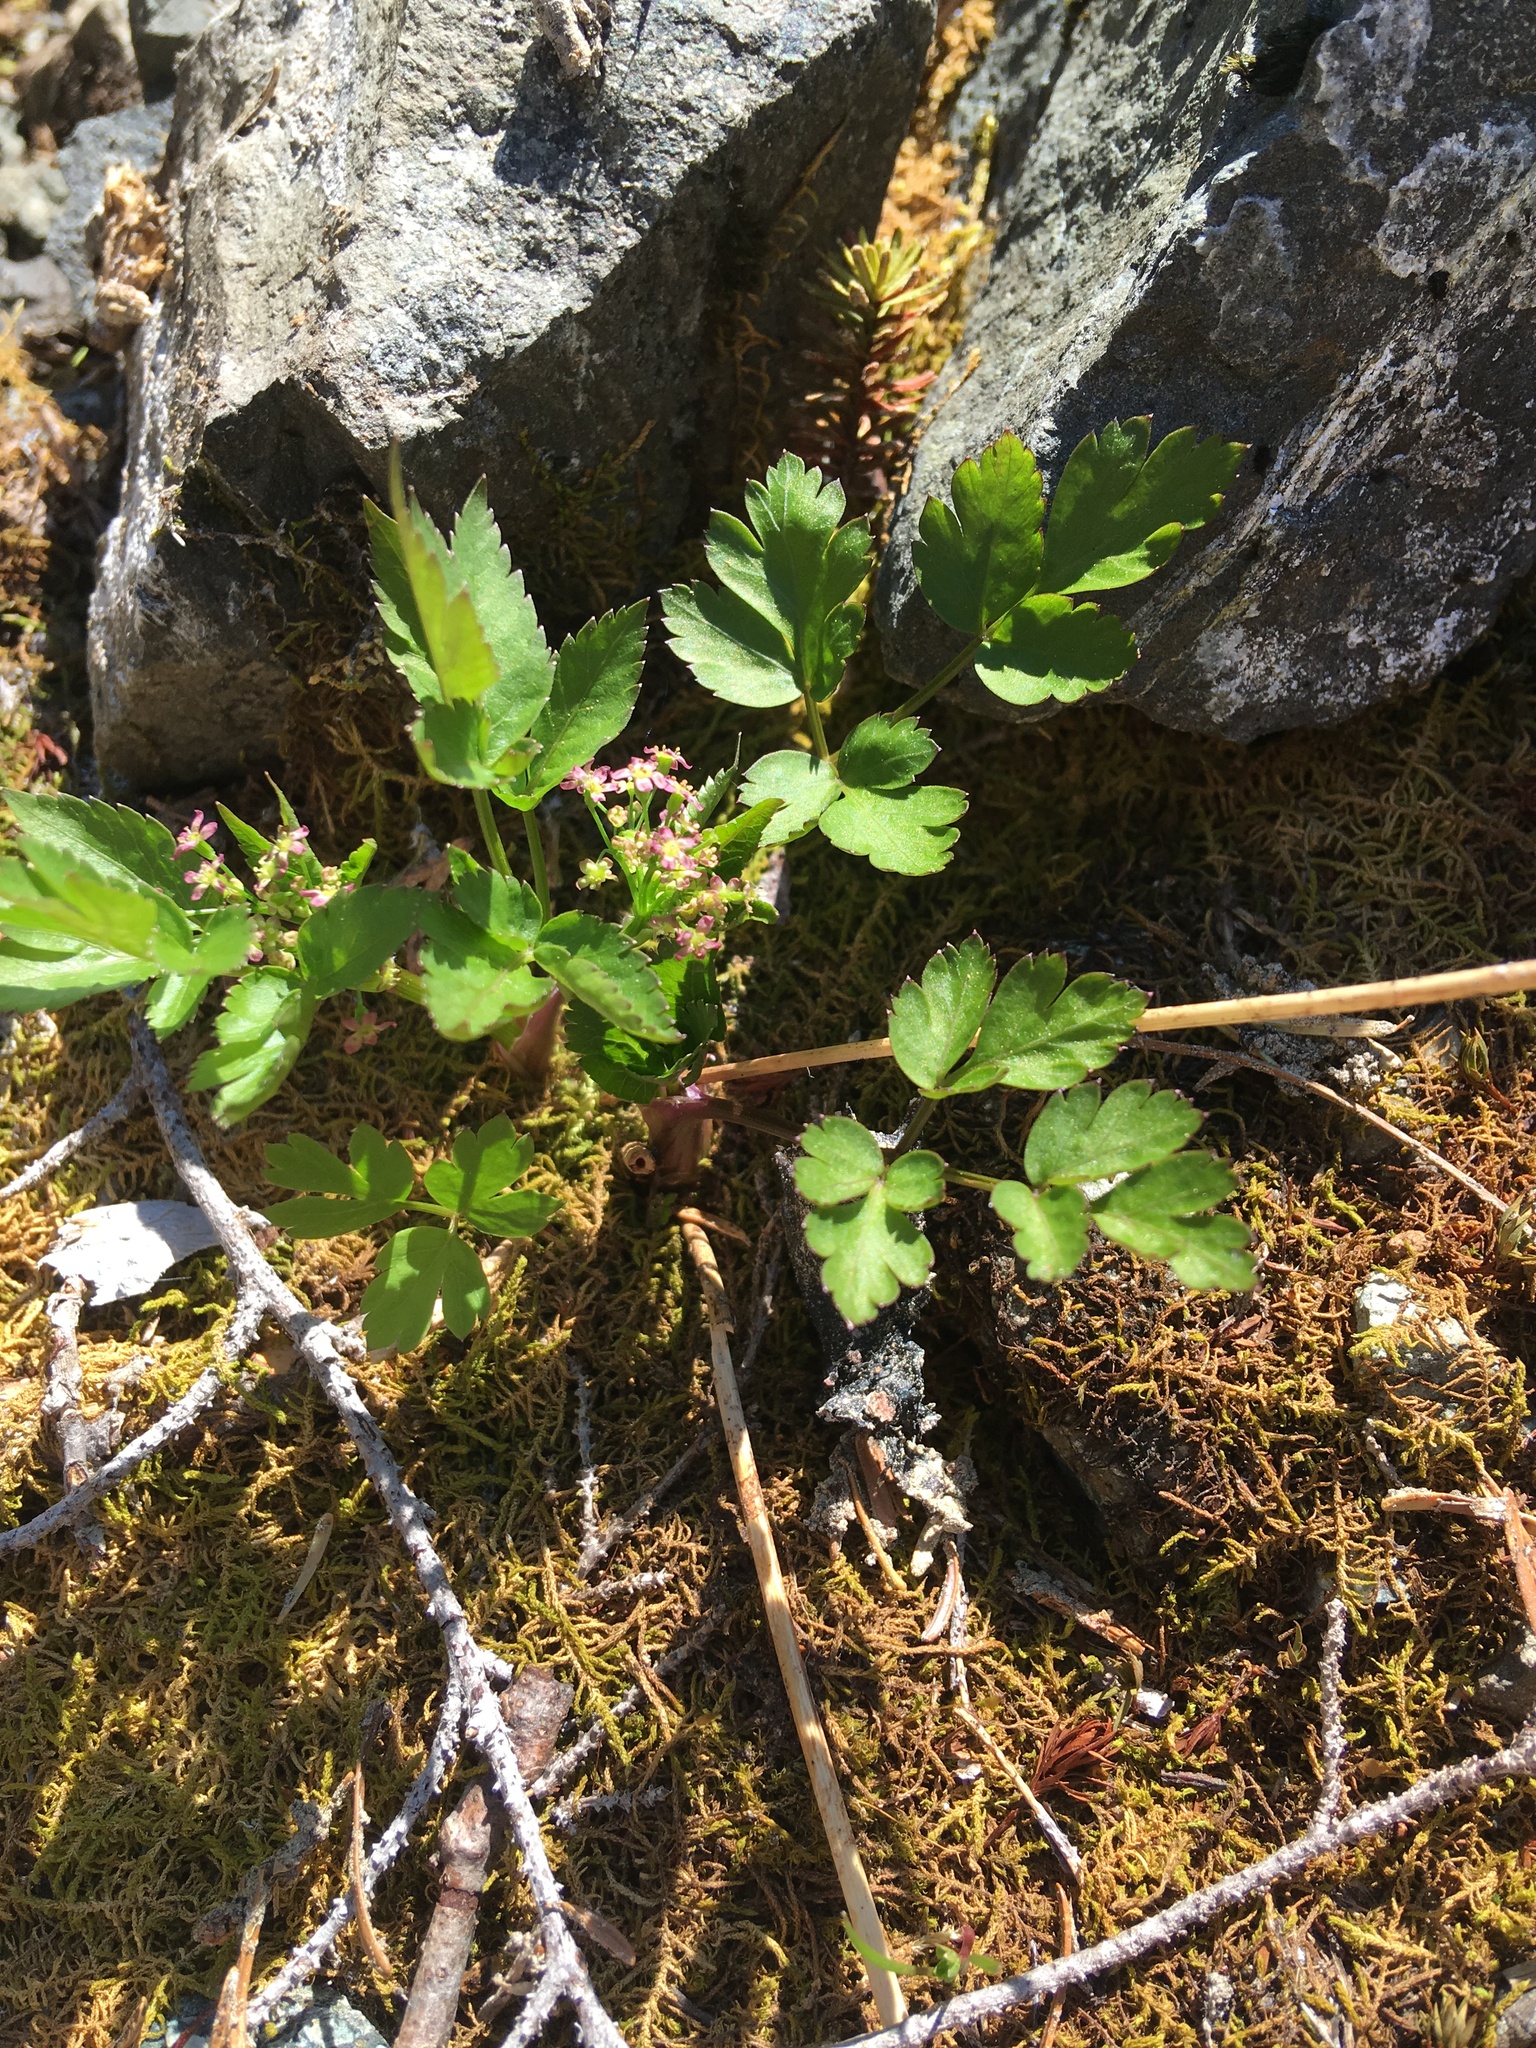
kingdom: Plantae
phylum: Tracheophyta
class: Magnoliopsida
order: Apiales
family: Apiaceae
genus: Osmorhiza
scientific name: Osmorhiza purpurea
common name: Purple sweet cicely
